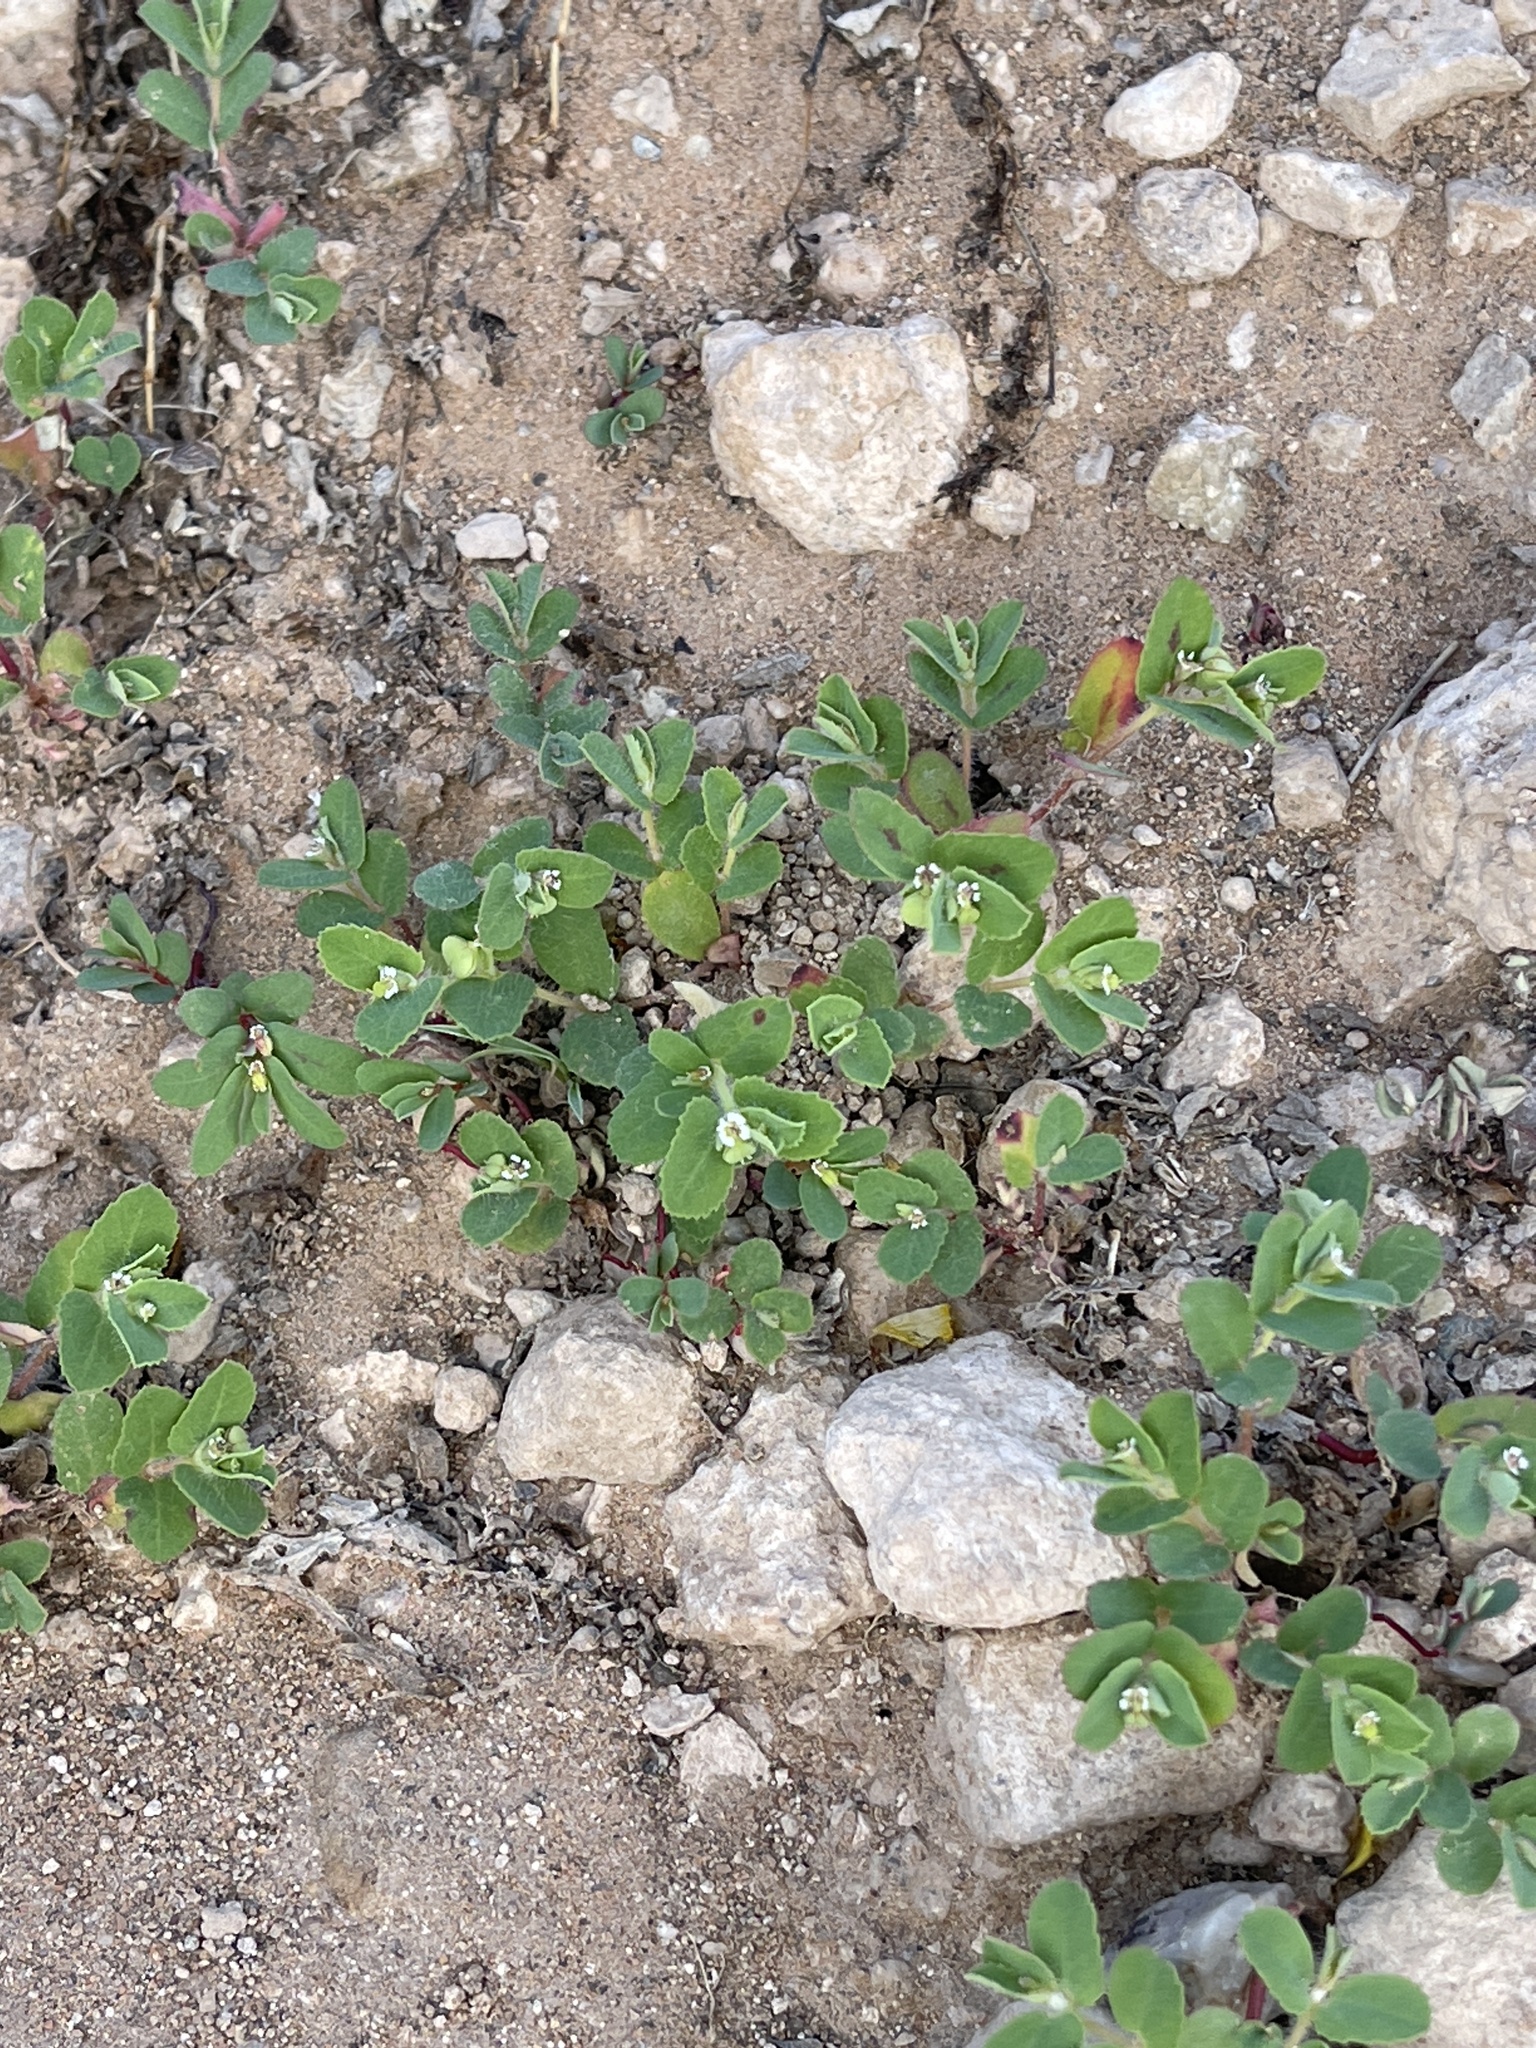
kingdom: Plantae
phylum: Tracheophyta
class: Magnoliopsida
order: Malpighiales
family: Euphorbiaceae
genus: Euphorbia
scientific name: Euphorbia serrula
